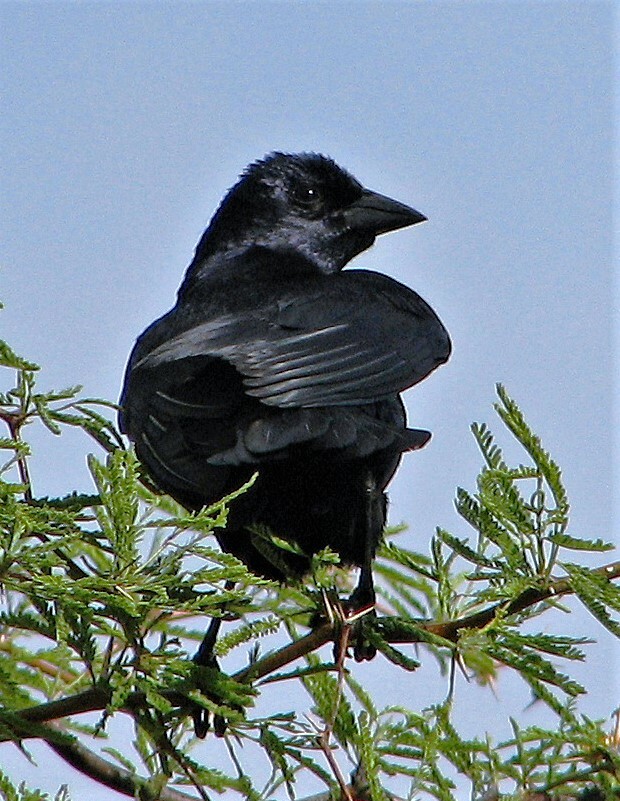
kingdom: Animalia
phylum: Chordata
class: Aves
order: Passeriformes
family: Icteridae
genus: Molothrus
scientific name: Molothrus rufoaxillaris
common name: Screaming cowbird
